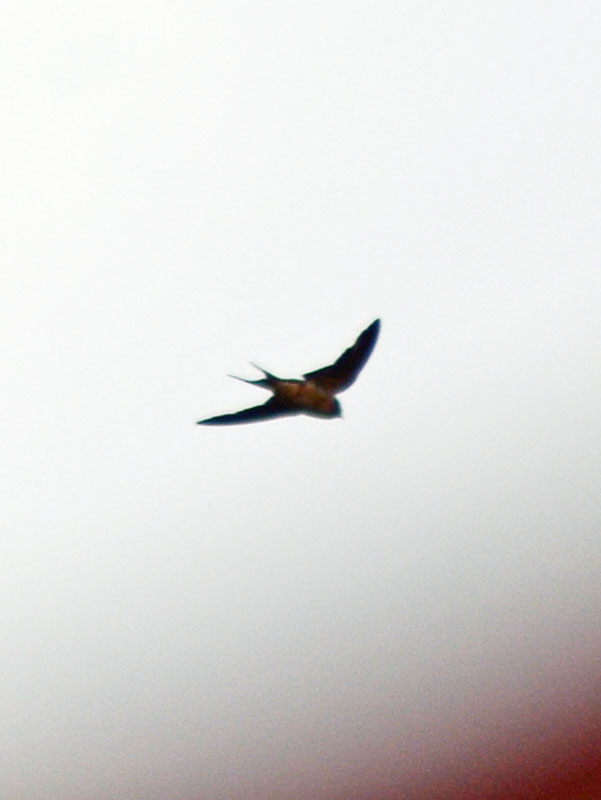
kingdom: Animalia
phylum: Chordata
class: Aves
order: Passeriformes
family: Hirundinidae
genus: Hirundo
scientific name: Hirundo rustica
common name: Barn swallow
